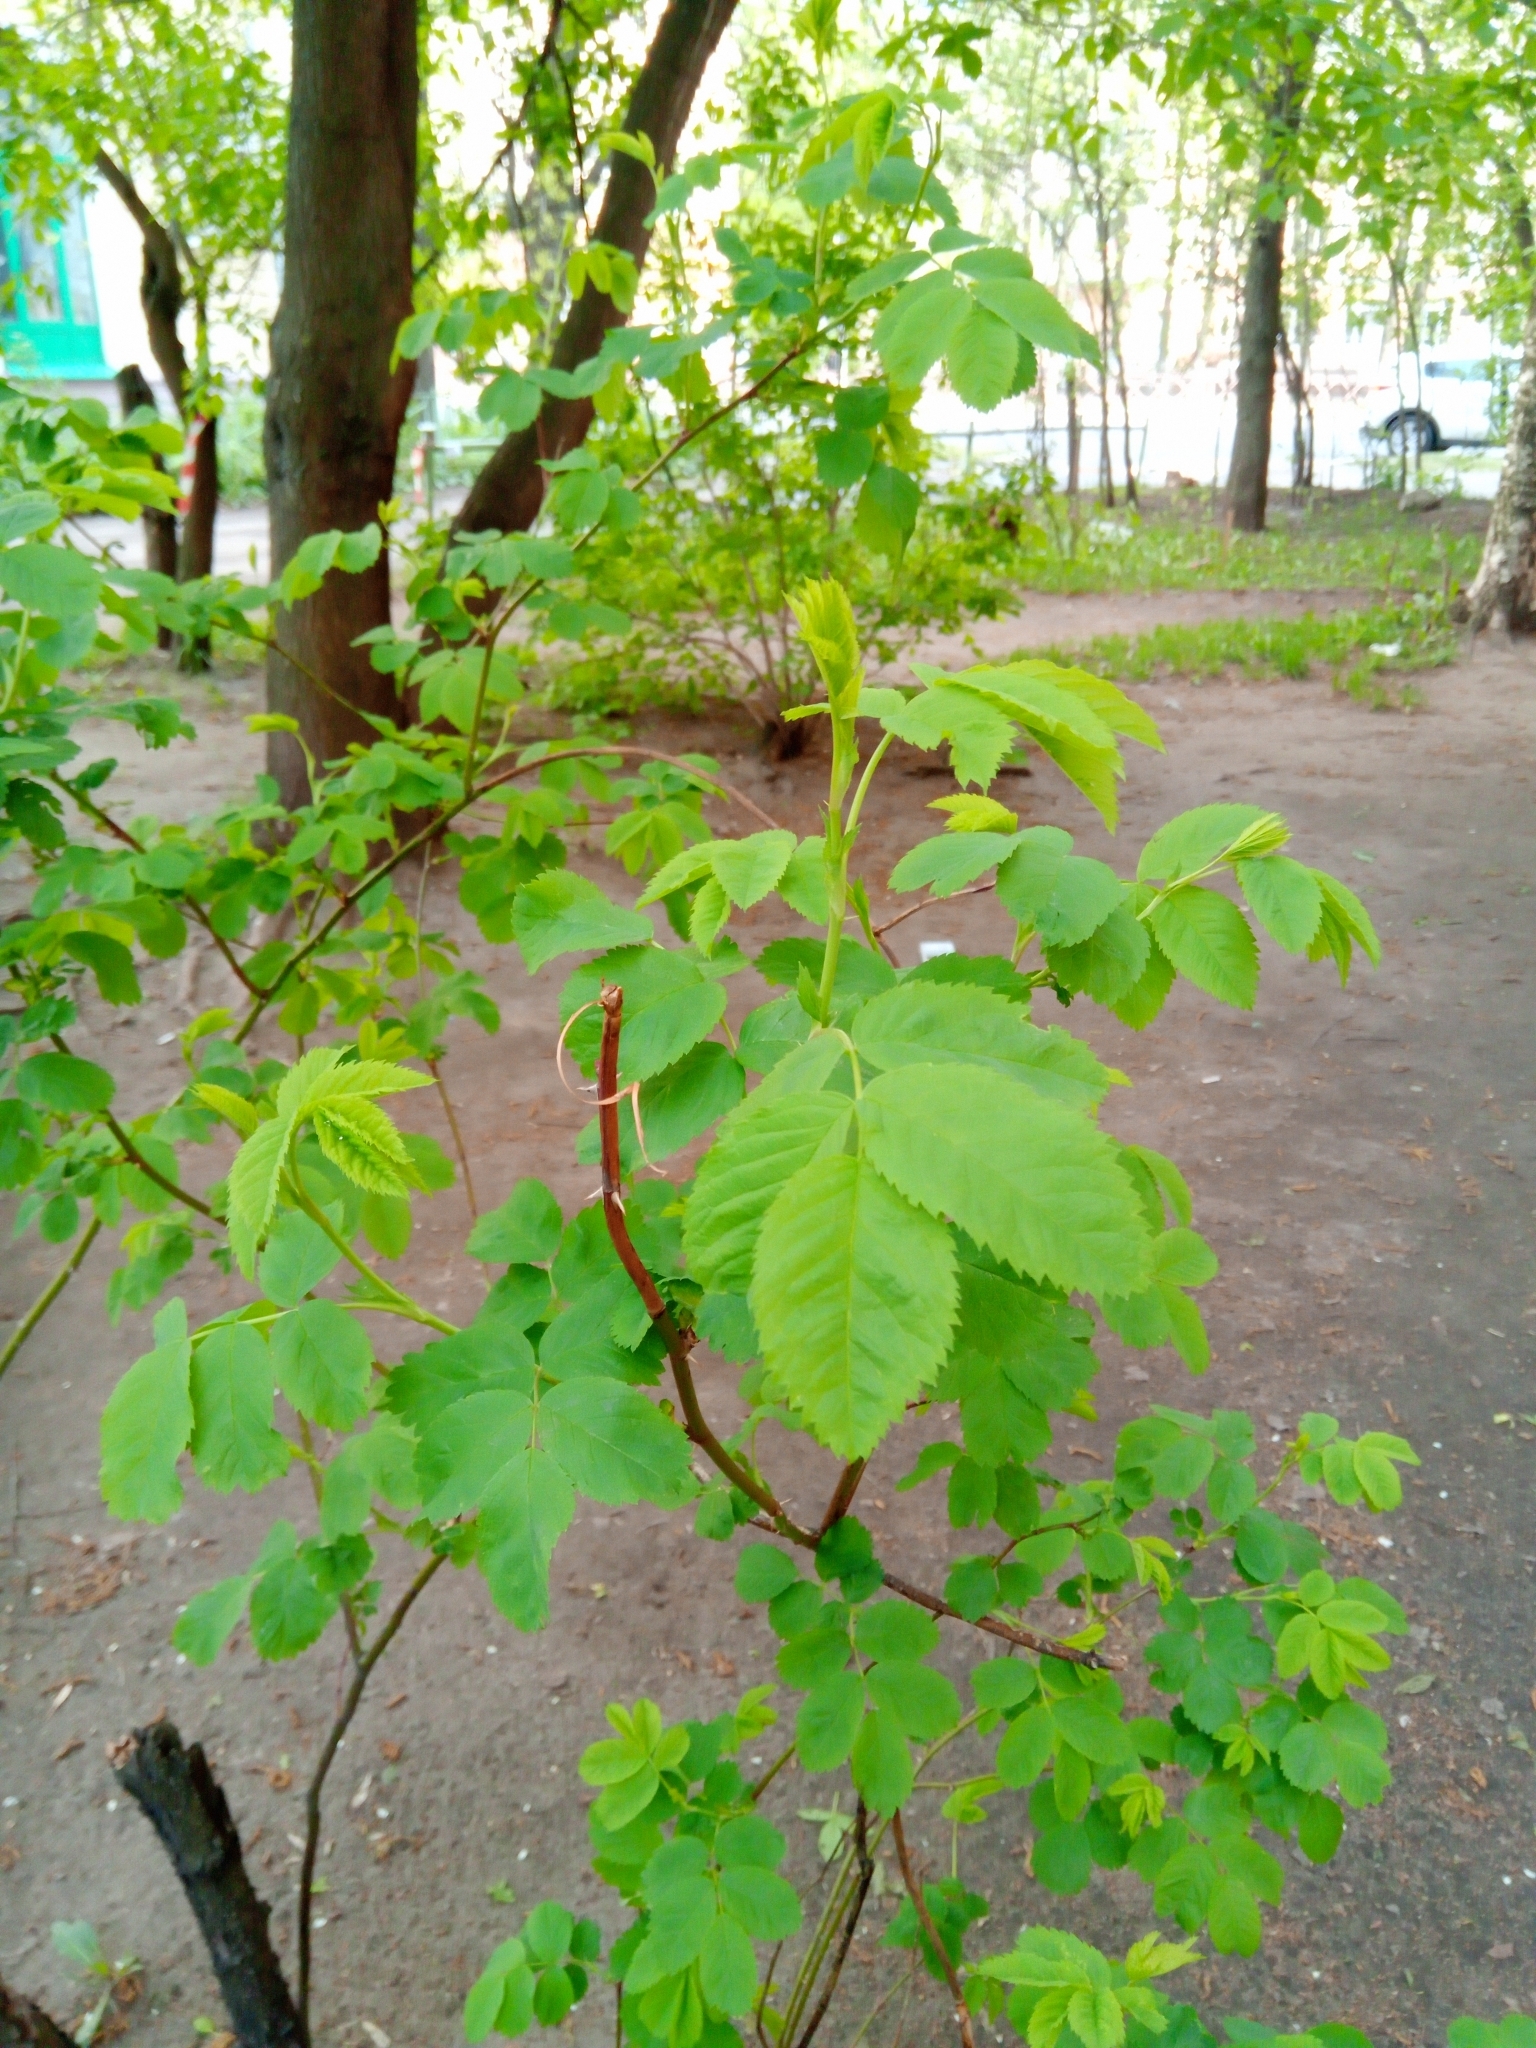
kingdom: Plantae
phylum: Tracheophyta
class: Magnoliopsida
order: Rosales
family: Rosaceae
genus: Rosa
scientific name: Rosa
